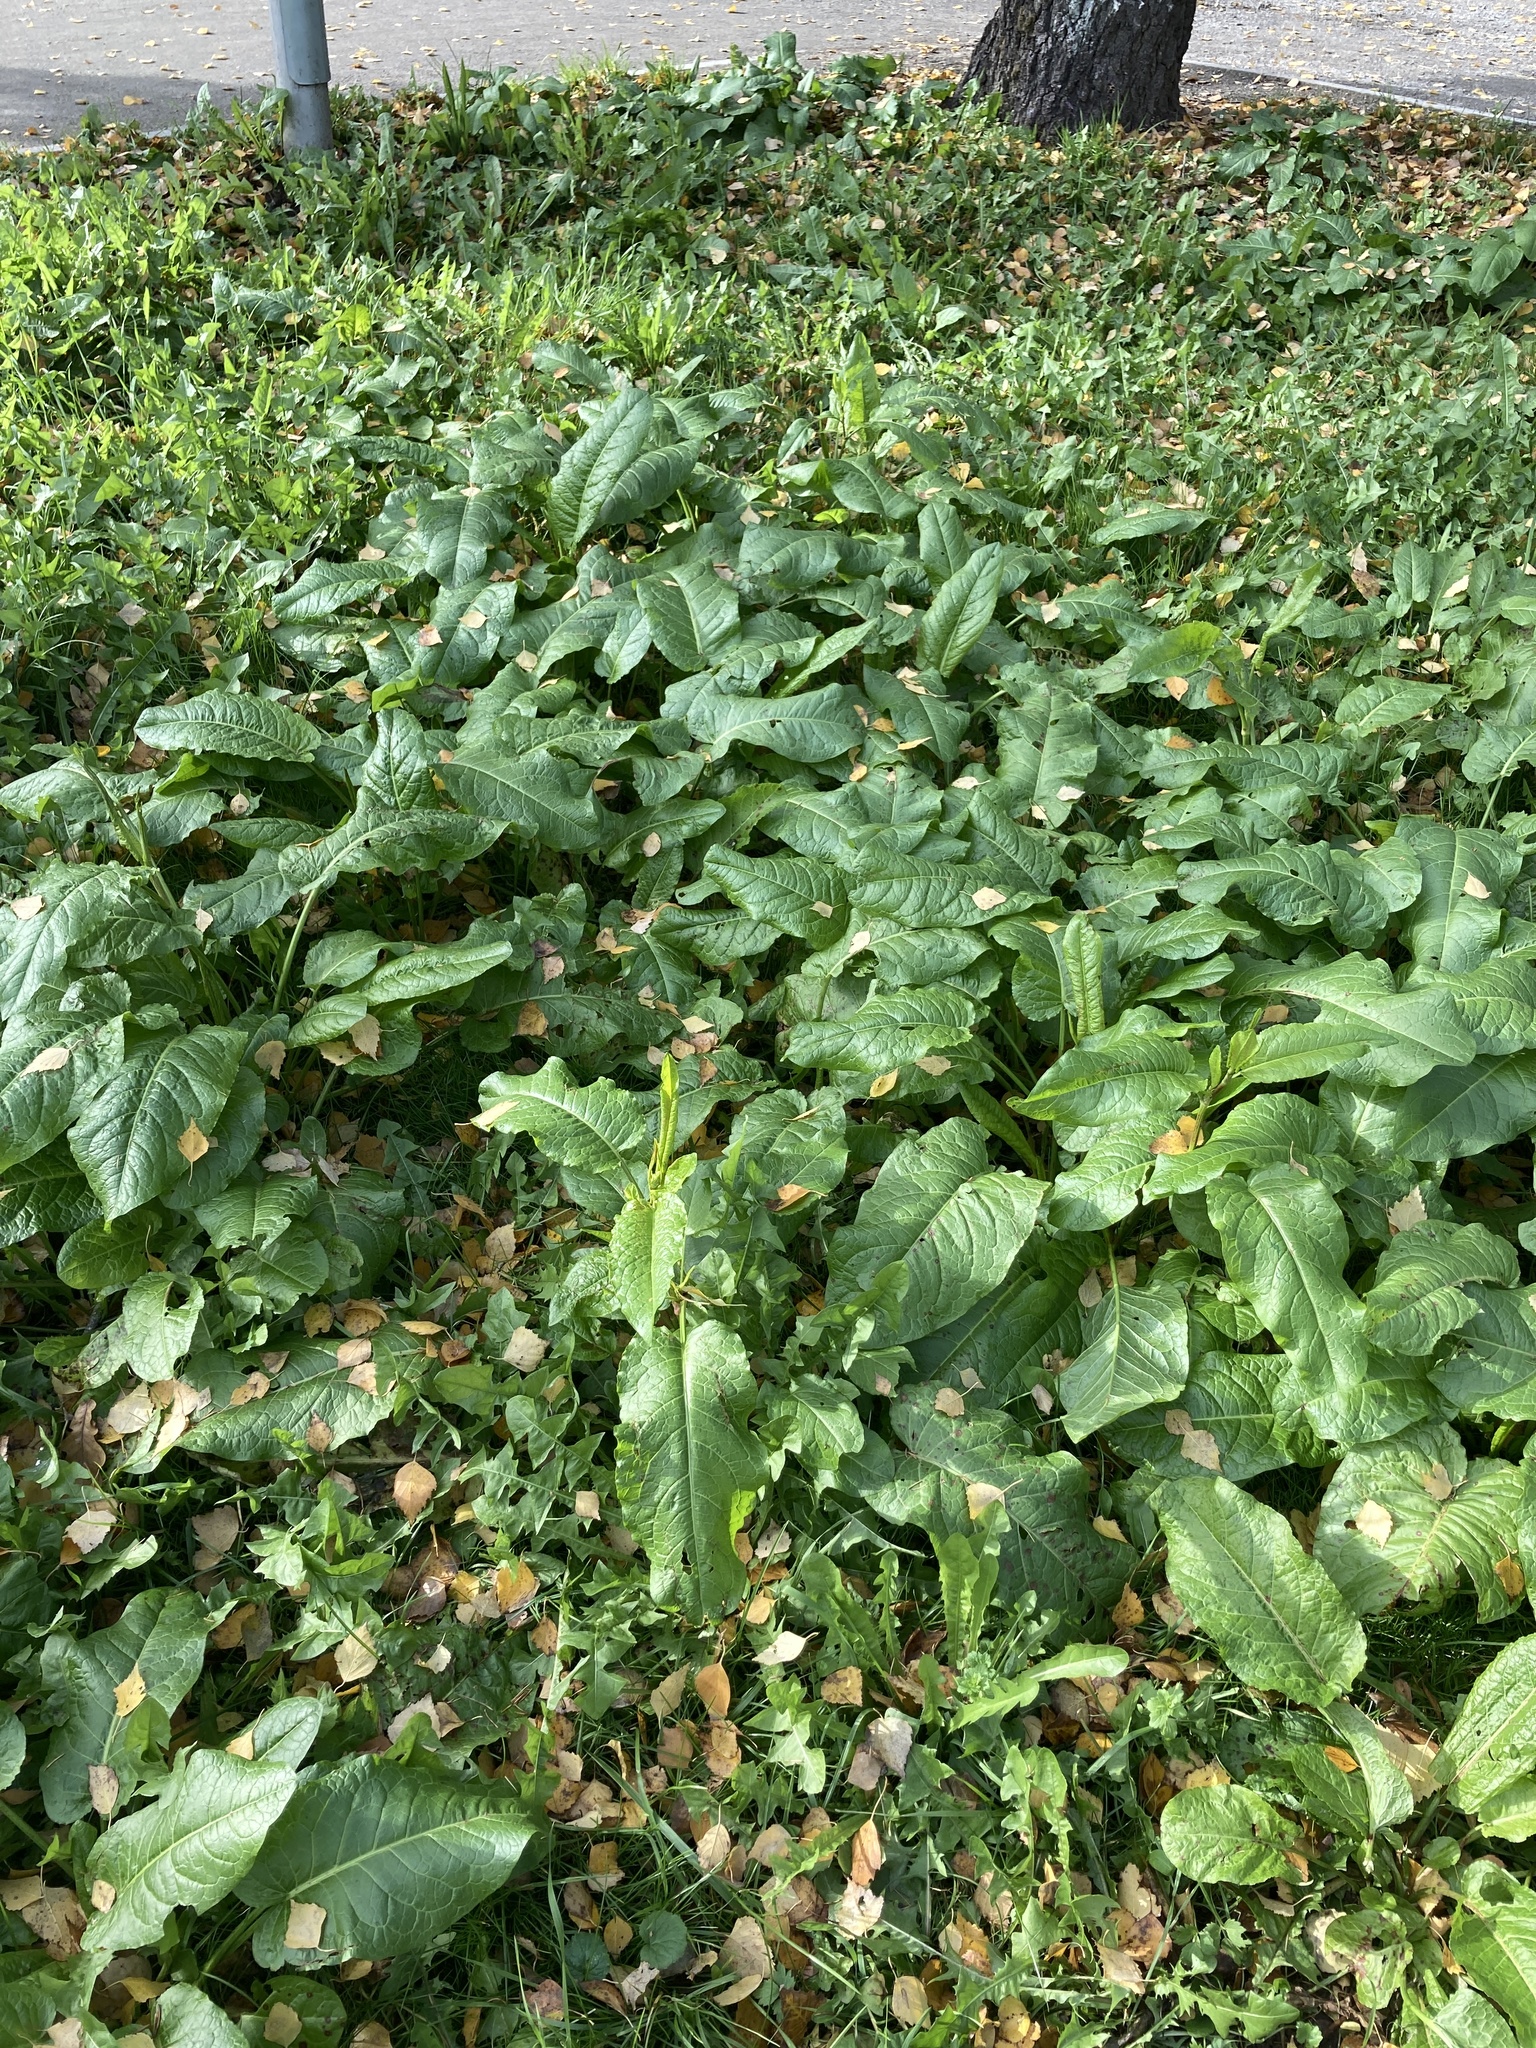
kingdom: Plantae
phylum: Tracheophyta
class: Magnoliopsida
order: Caryophyllales
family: Polygonaceae
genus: Rumex
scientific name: Rumex obtusifolius
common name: Bitter dock
